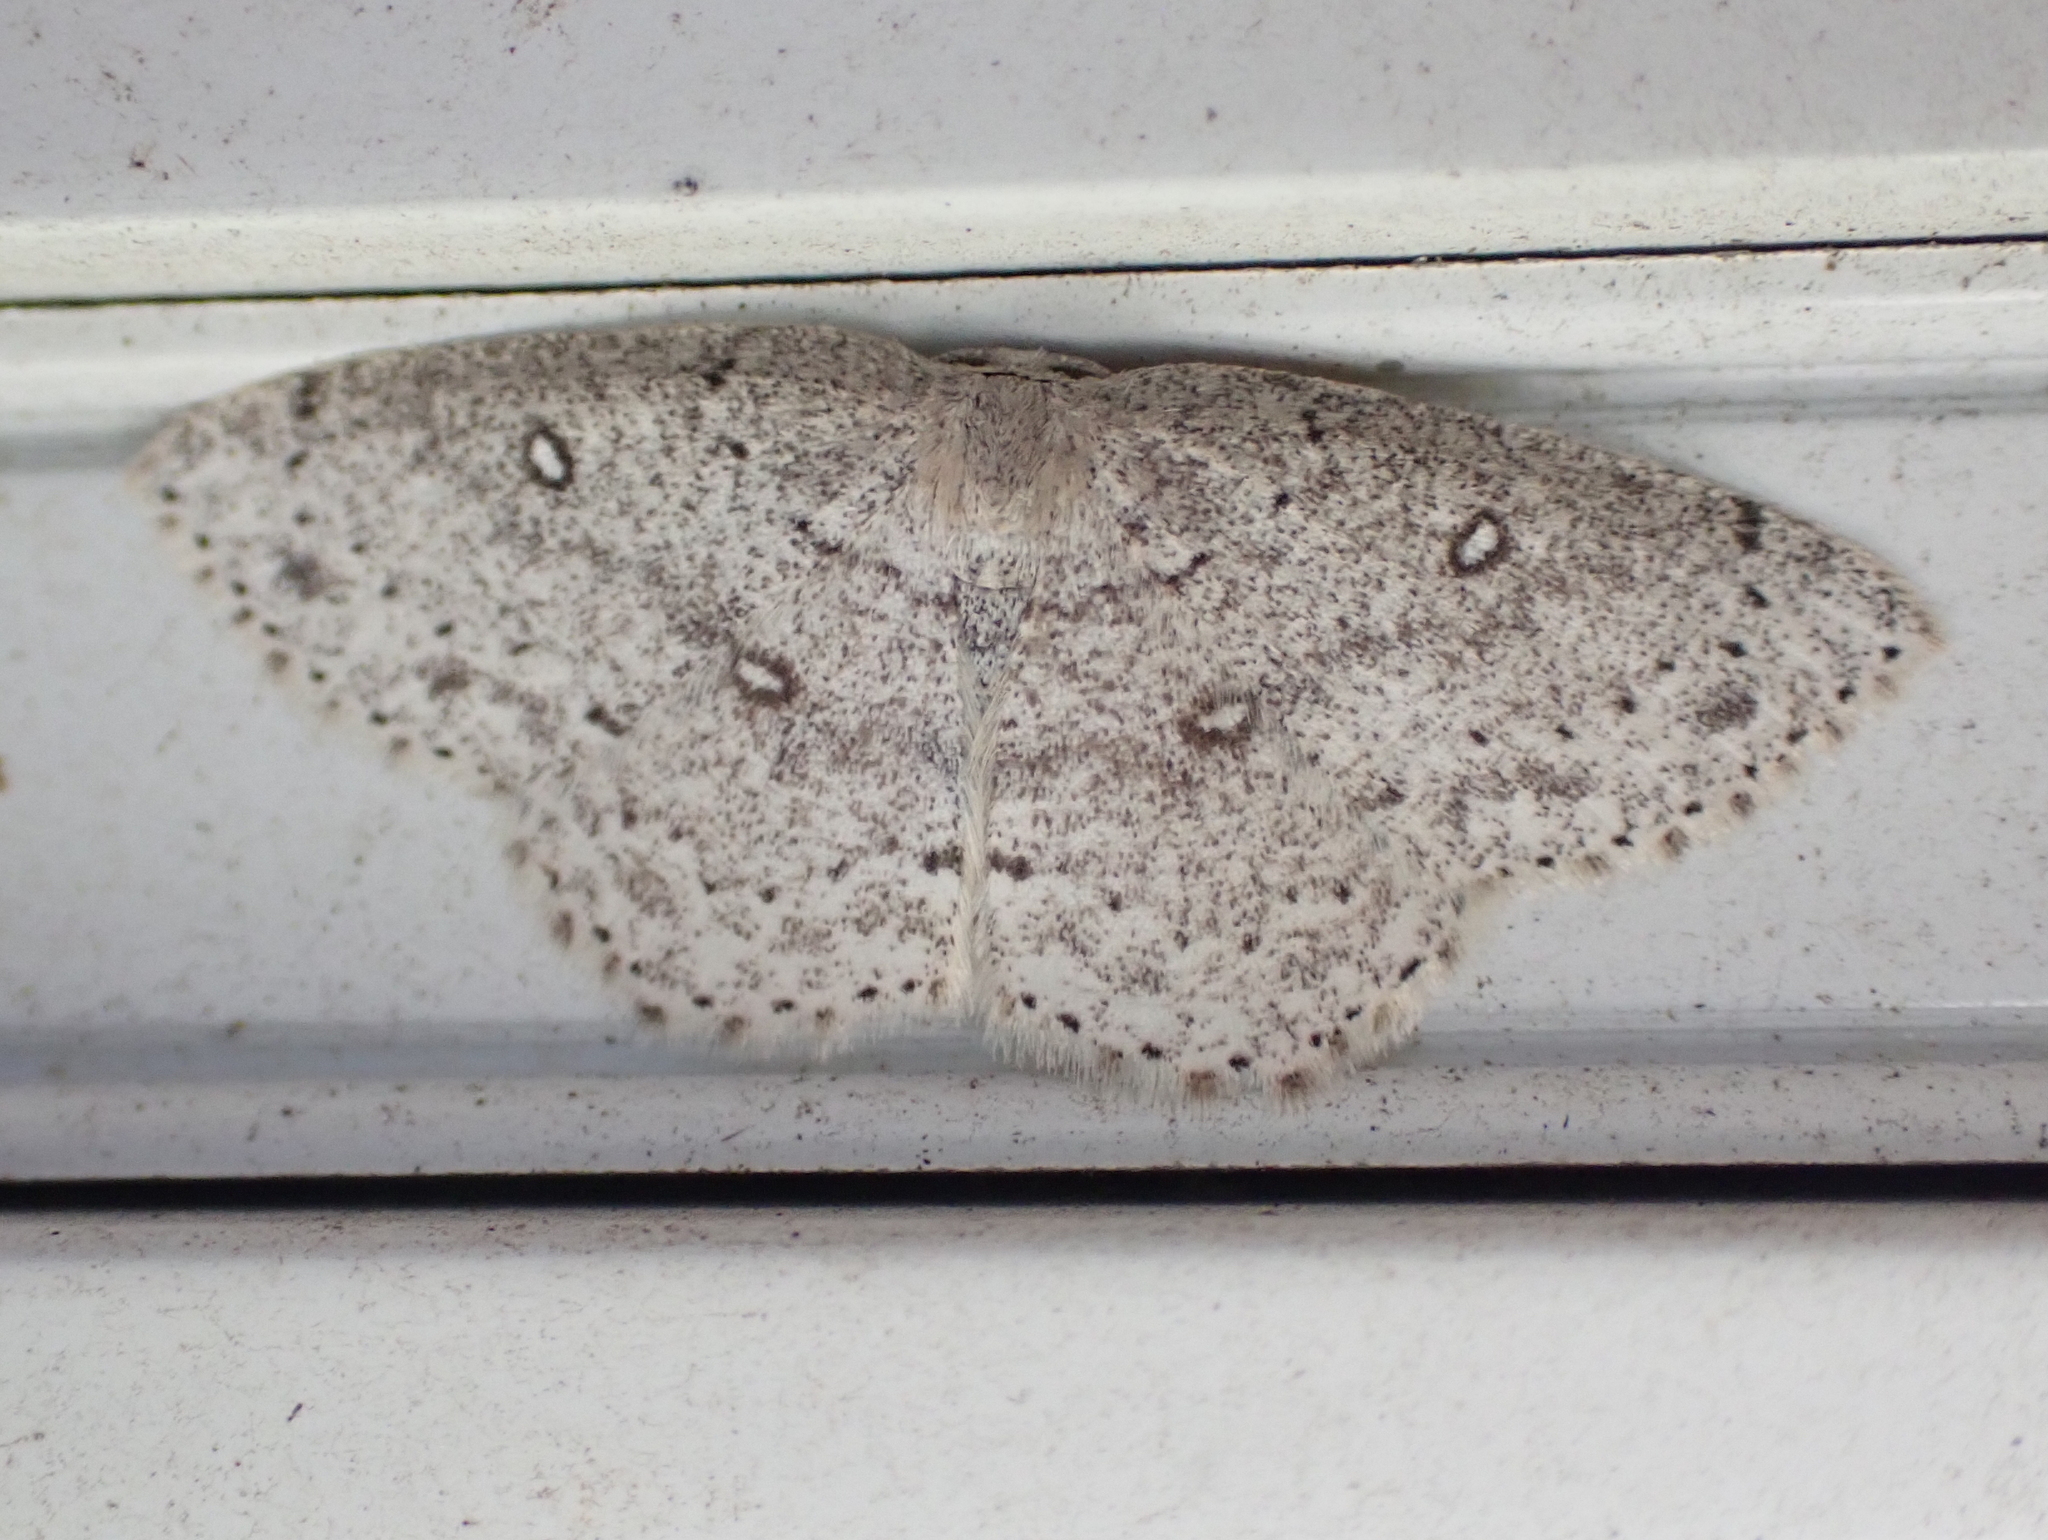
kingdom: Animalia
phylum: Arthropoda
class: Insecta
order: Lepidoptera
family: Geometridae
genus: Cyclophora
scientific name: Cyclophora pendulinaria
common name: Sweet fern geometer
